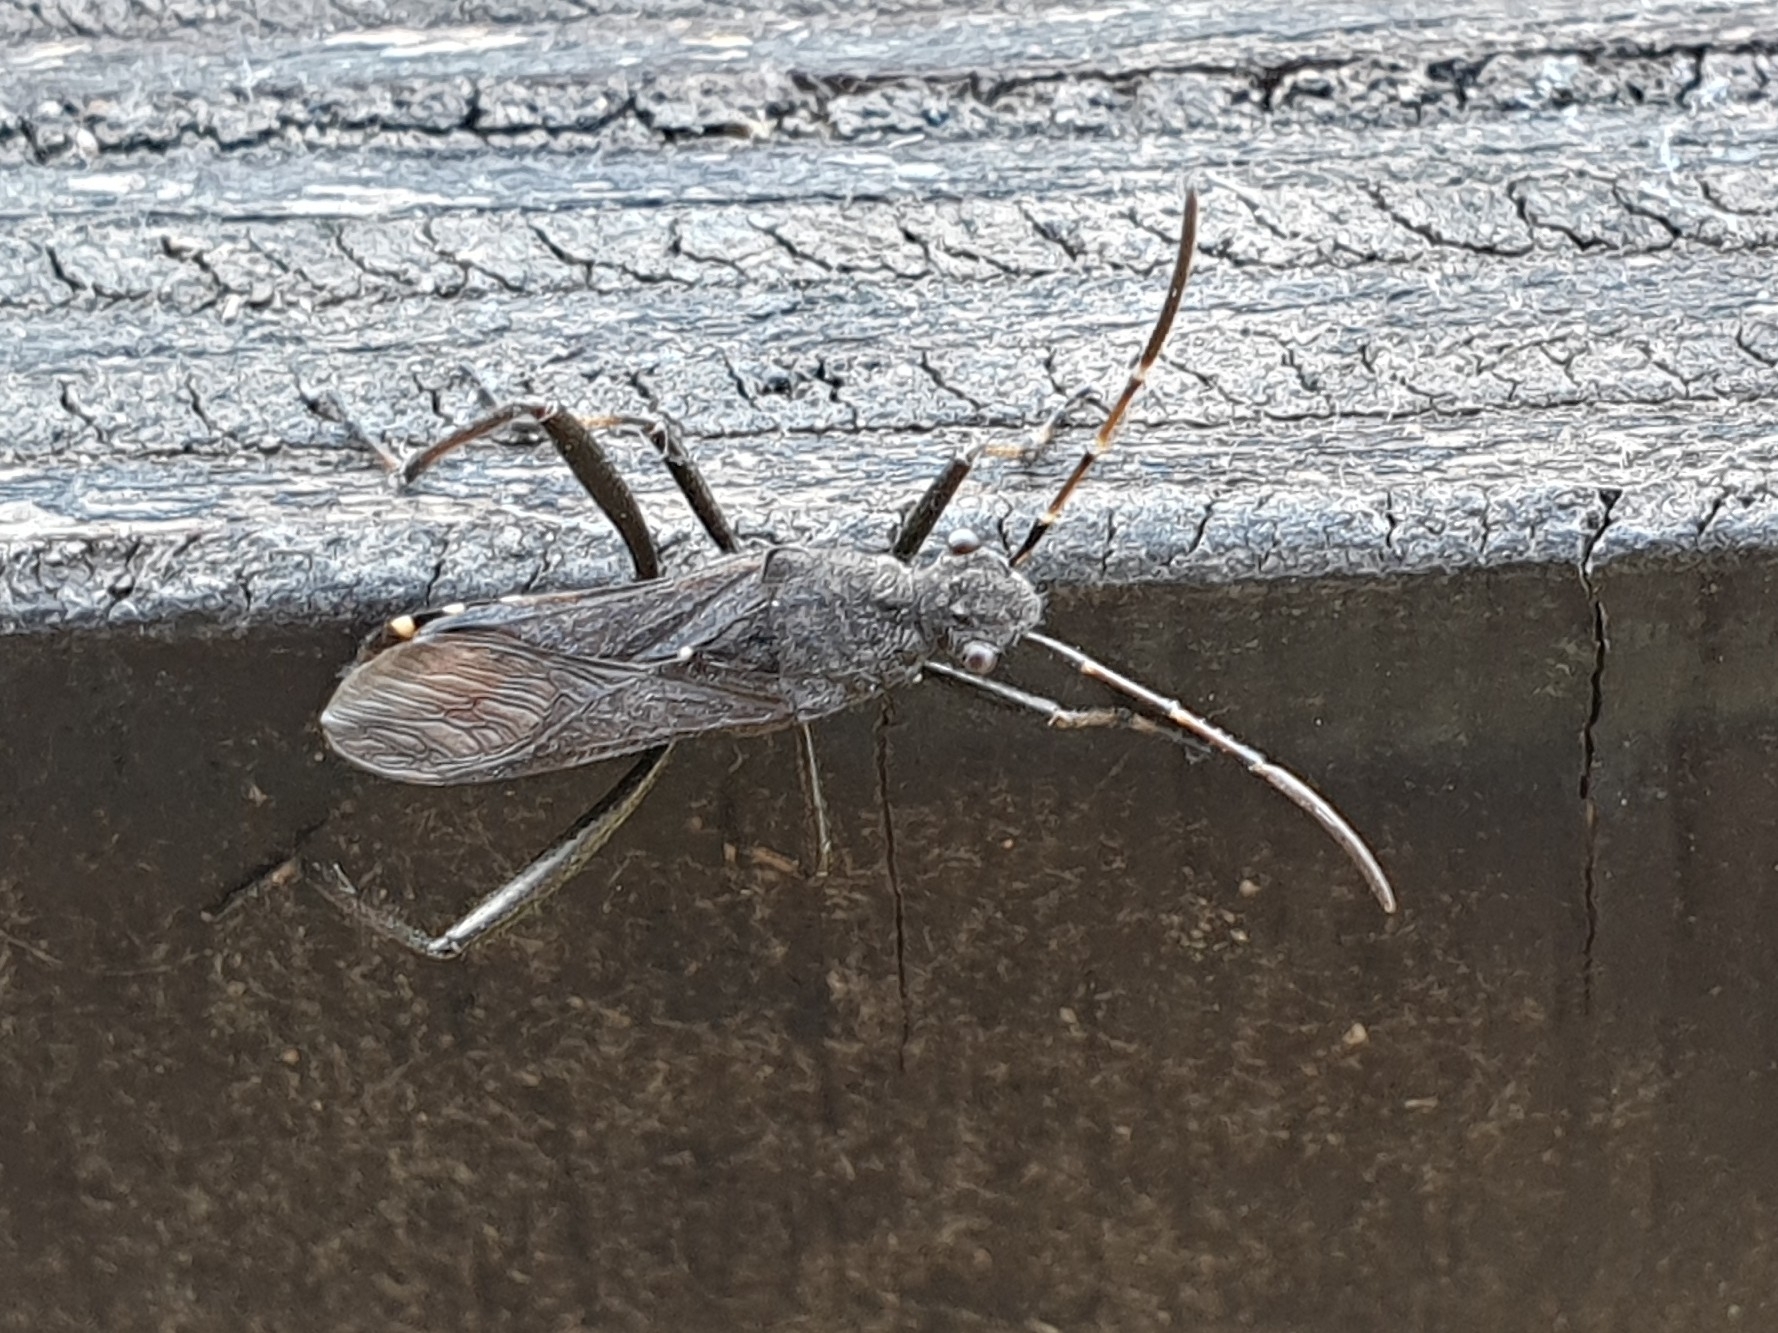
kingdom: Animalia
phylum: Arthropoda
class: Insecta
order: Hemiptera
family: Alydidae
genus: Alydus
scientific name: Alydus calcaratus
